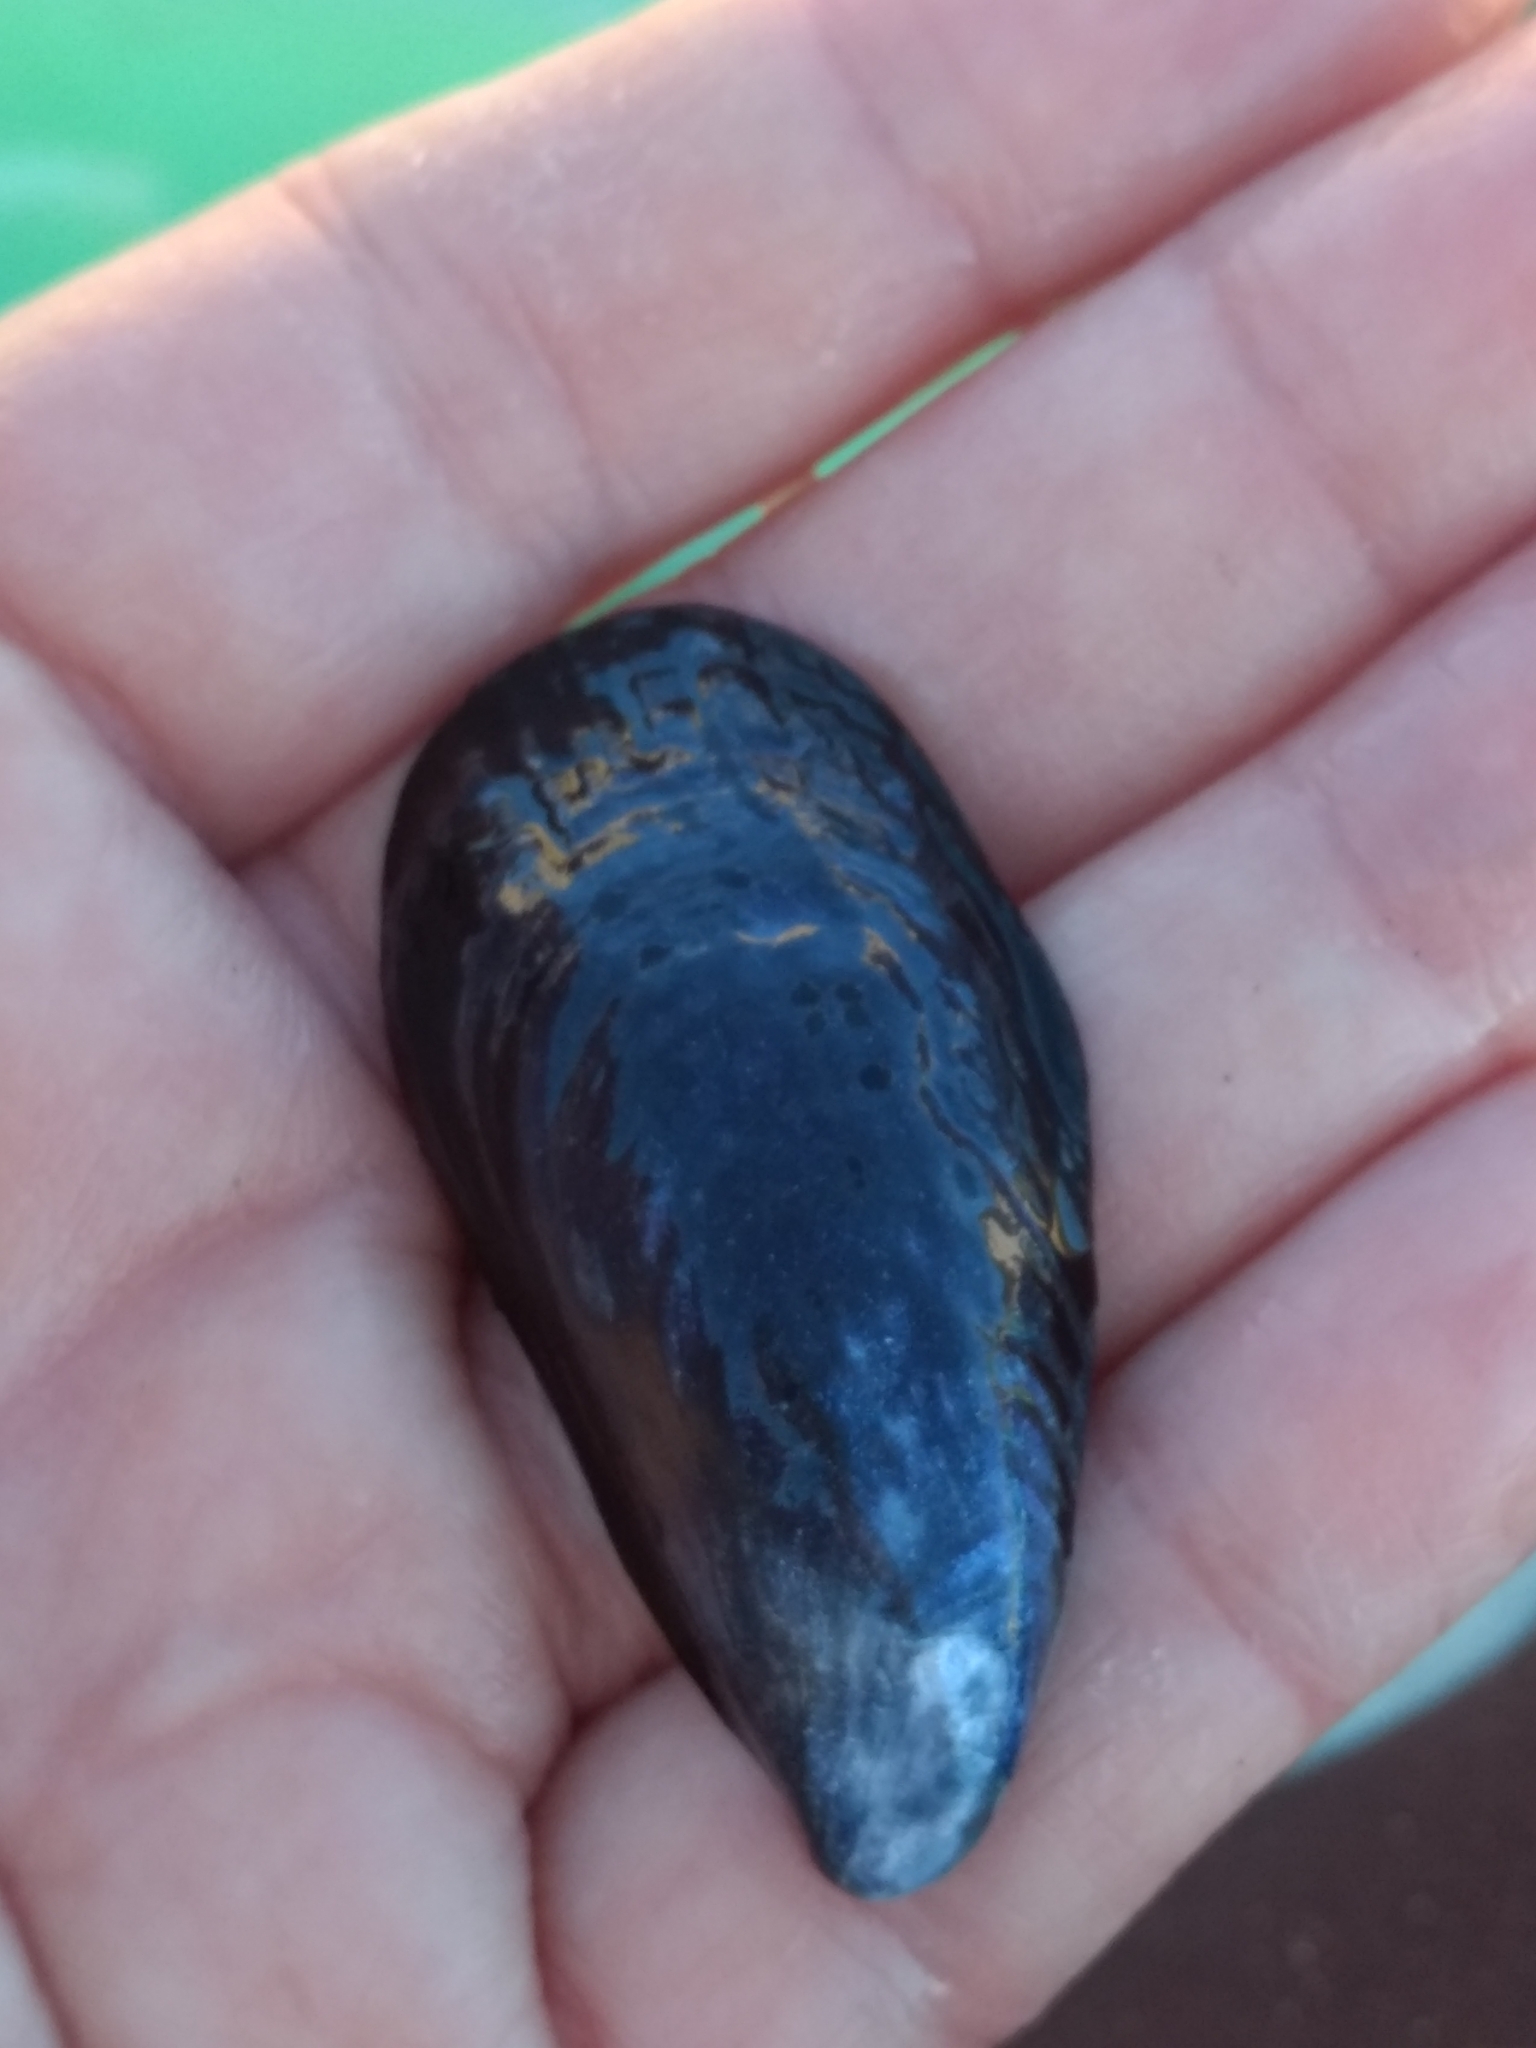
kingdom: Animalia
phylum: Mollusca
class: Bivalvia
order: Mytilida
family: Mytilidae
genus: Mytilus
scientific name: Mytilus californianus
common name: California mussel
